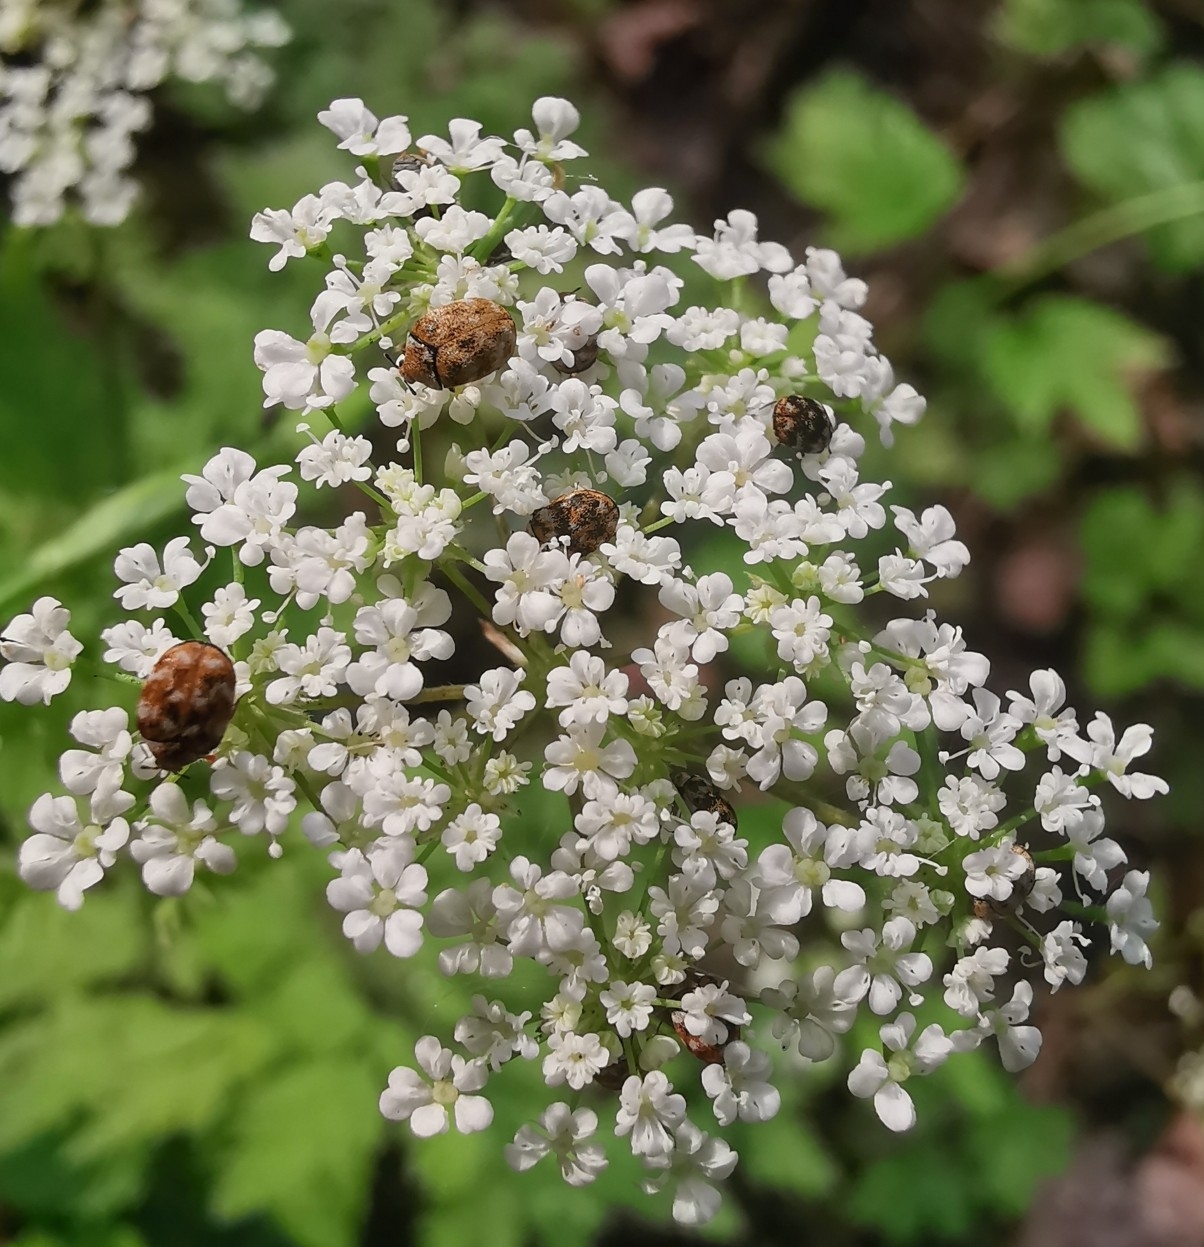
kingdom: Animalia
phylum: Arthropoda
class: Insecta
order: Coleoptera
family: Dermestidae
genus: Anthrenus
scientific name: Anthrenus verbasci
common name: Varied carpet beetle
